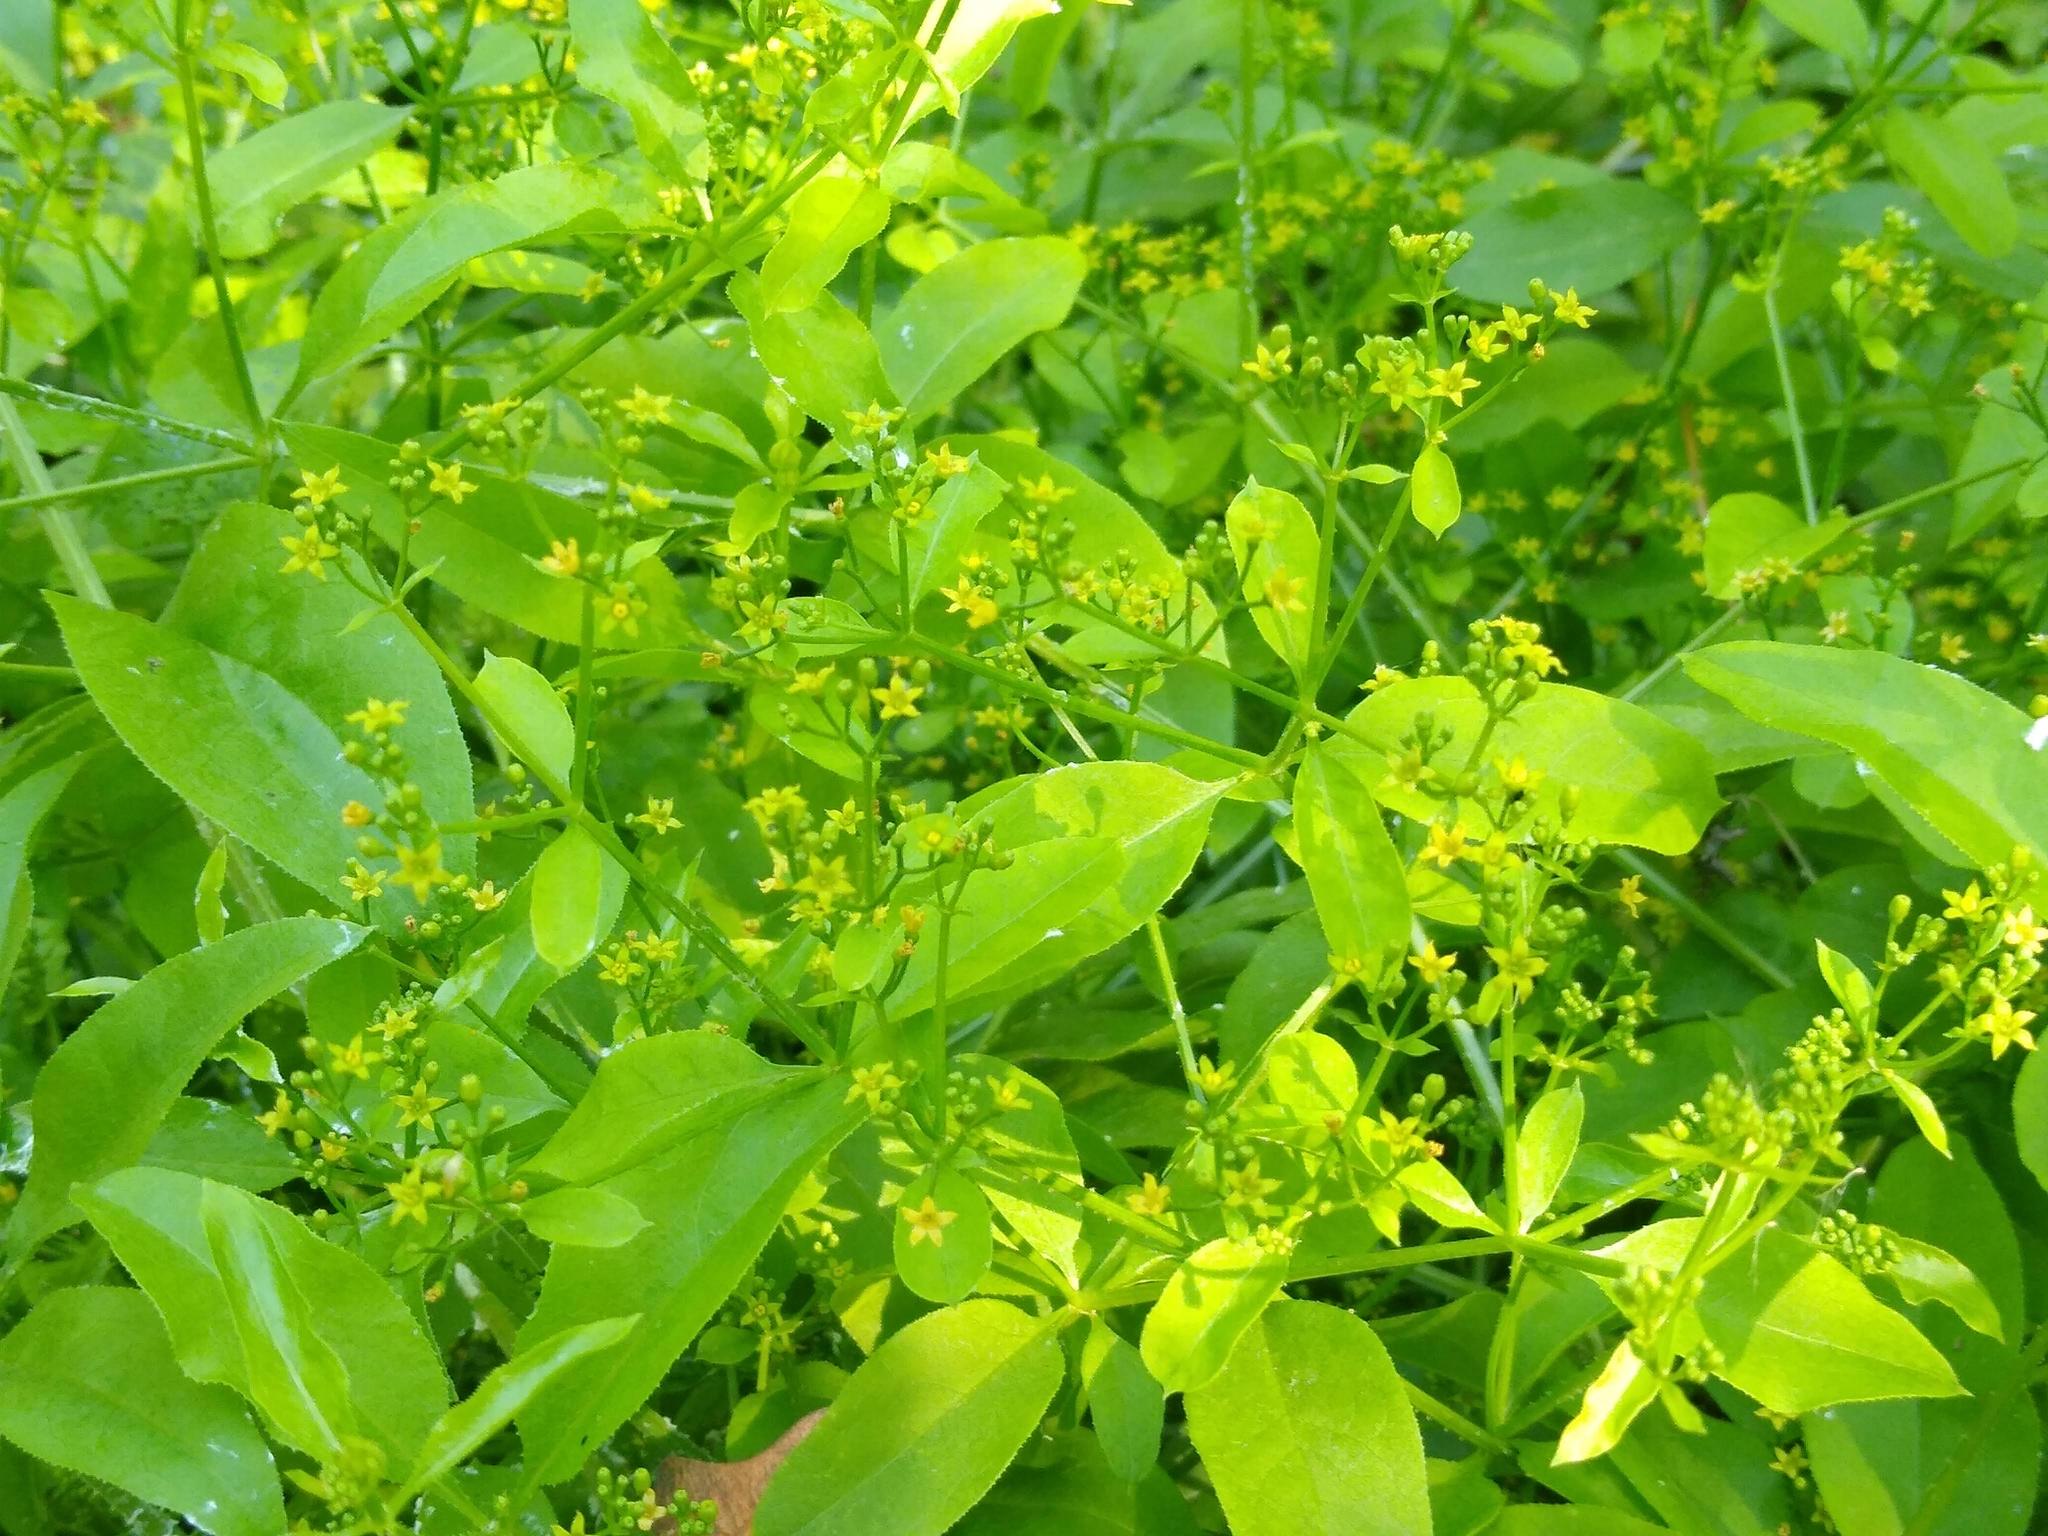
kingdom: Plantae
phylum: Tracheophyta
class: Magnoliopsida
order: Gentianales
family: Rubiaceae
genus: Rubia
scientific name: Rubia tinctorum
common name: Dyer's madder
